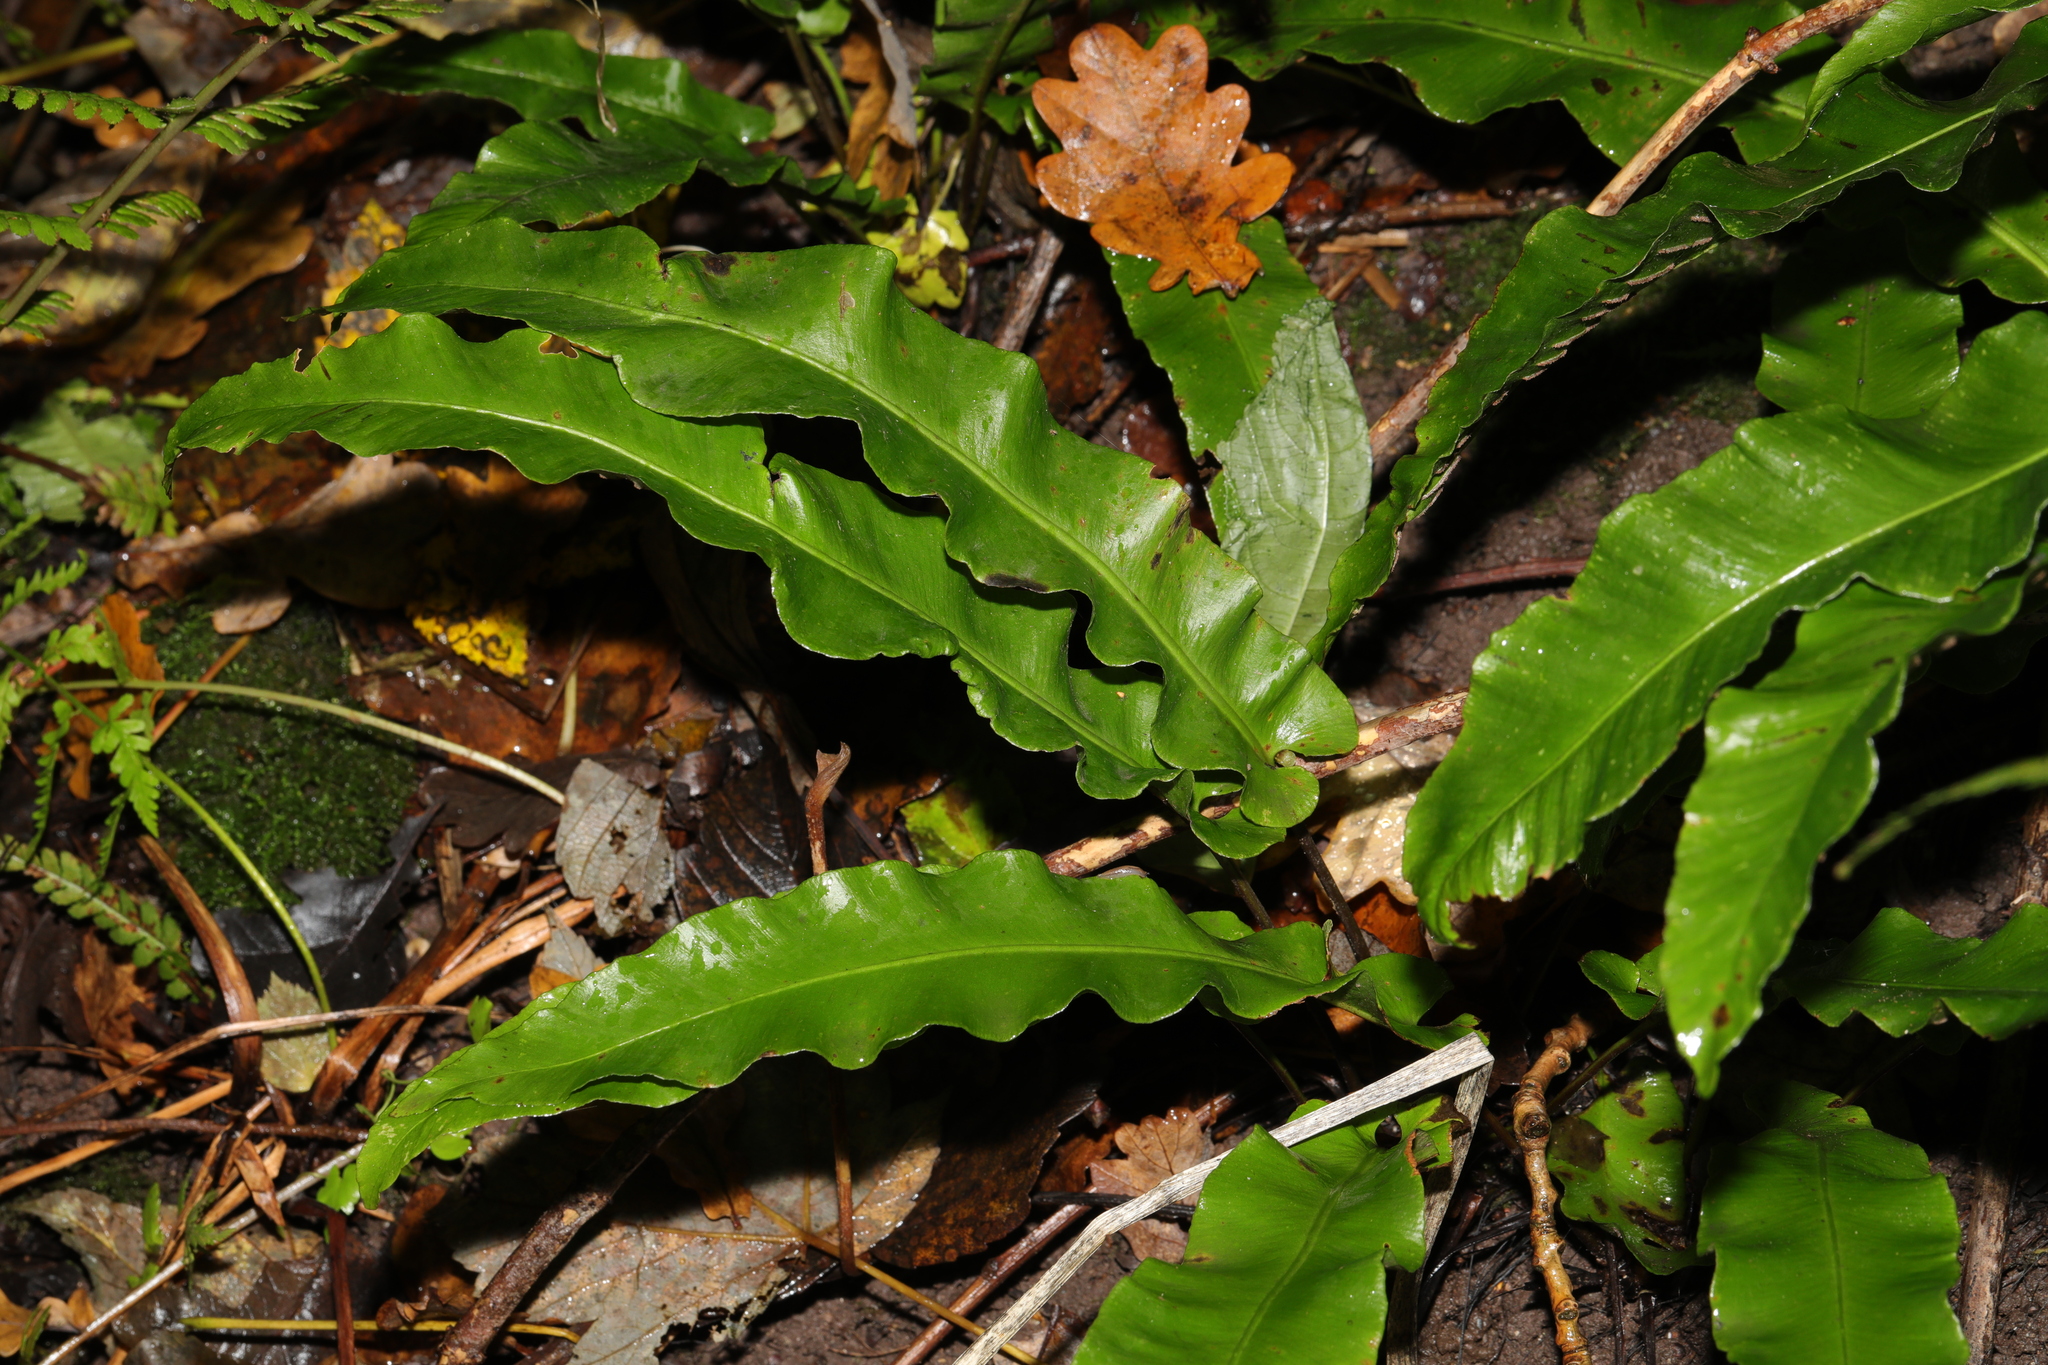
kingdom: Plantae
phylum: Tracheophyta
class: Polypodiopsida
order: Polypodiales
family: Aspleniaceae
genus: Asplenium
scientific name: Asplenium scolopendrium
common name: Hart's-tongue fern
